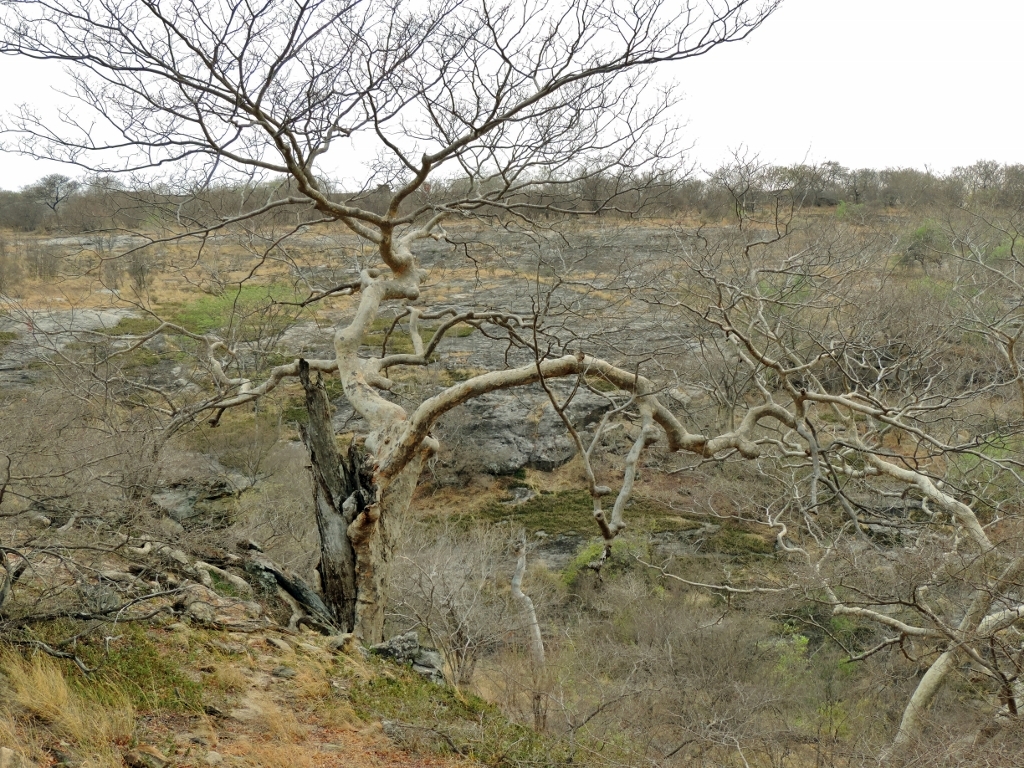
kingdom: Plantae
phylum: Tracheophyta
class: Magnoliopsida
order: Fabales
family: Fabaceae
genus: Brachystegia
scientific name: Brachystegia tamarindoides
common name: Mountain acacia
